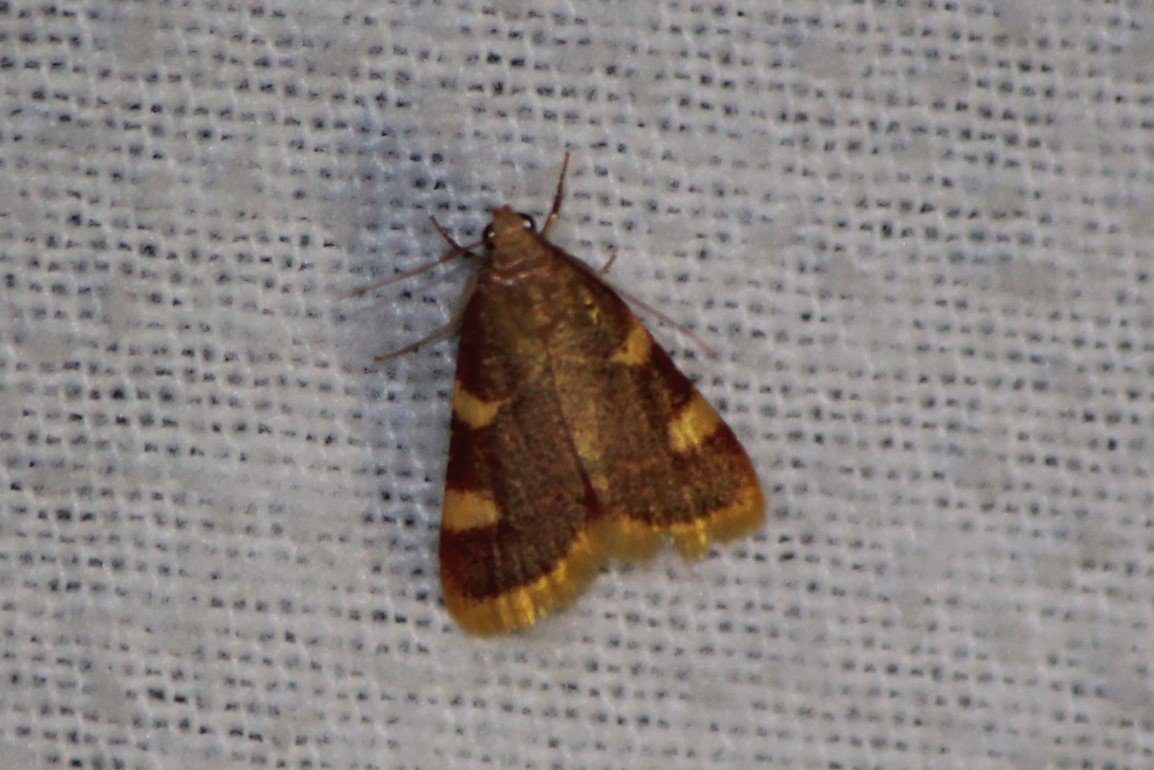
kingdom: Animalia
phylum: Arthropoda
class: Insecta
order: Lepidoptera
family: Pyralidae
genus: Hypsopygia
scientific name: Hypsopygia costalis
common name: Gold triangle
